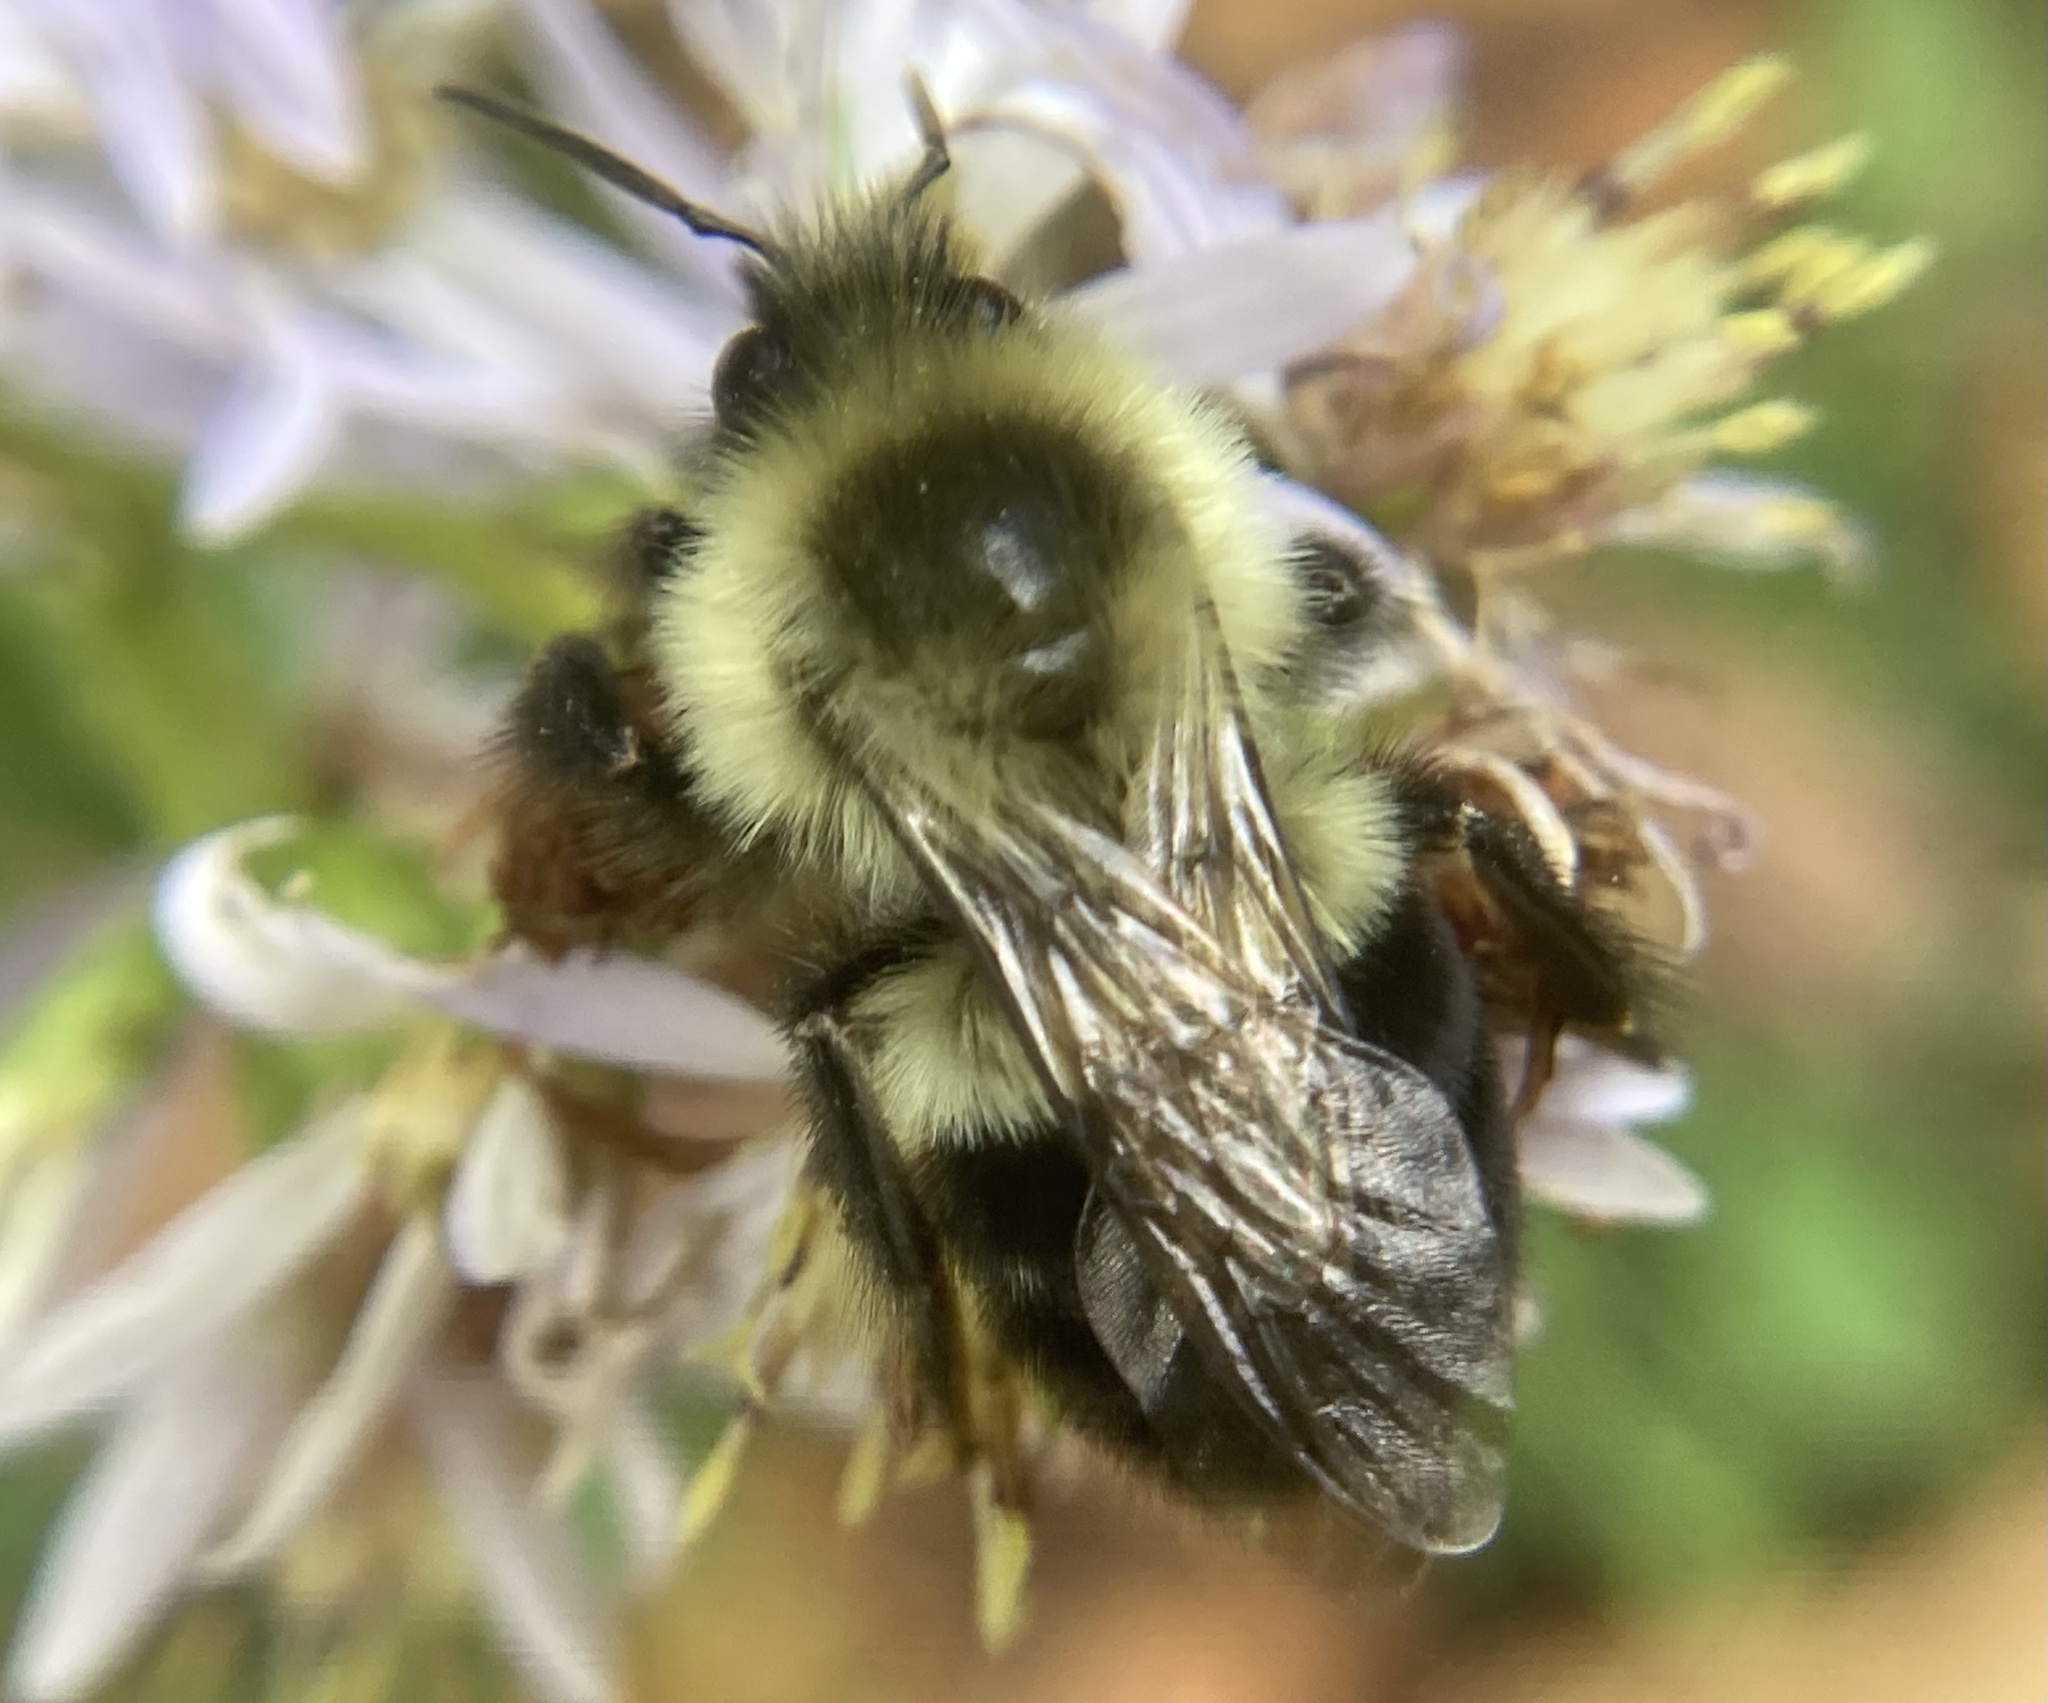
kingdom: Animalia
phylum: Arthropoda
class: Insecta
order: Hymenoptera
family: Apidae
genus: Bombus
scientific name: Bombus impatiens
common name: Common eastern bumble bee
